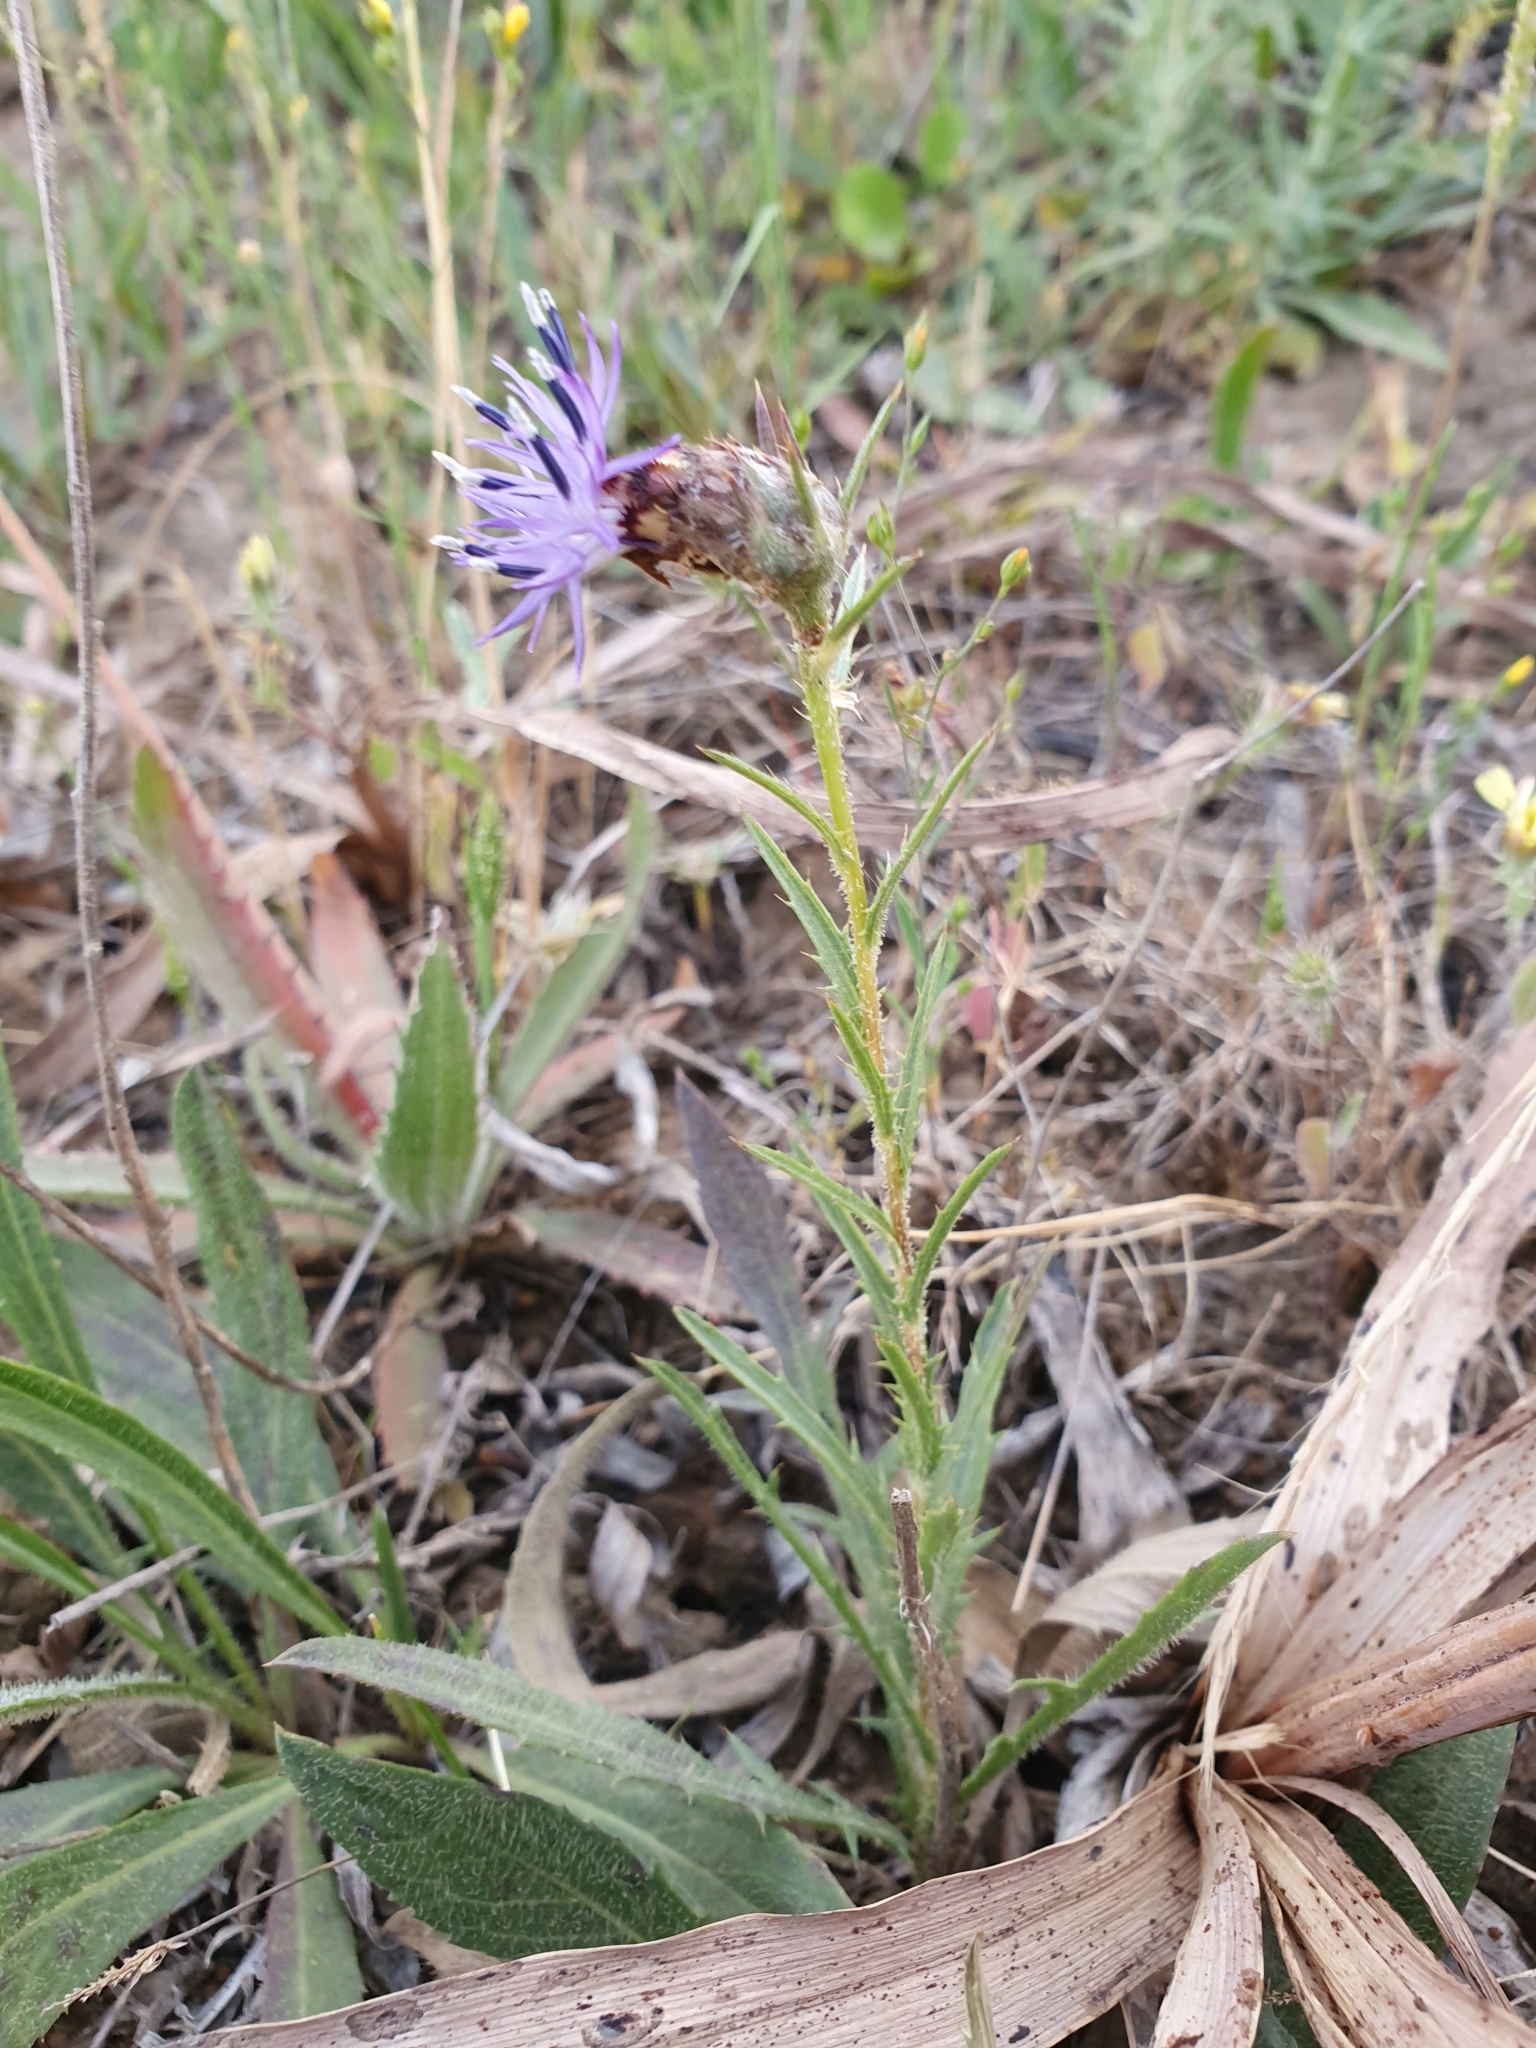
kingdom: Plantae
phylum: Tracheophyta
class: Magnoliopsida
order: Asterales
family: Asteraceae
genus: Carthamus
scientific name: Carthamus multifidus
